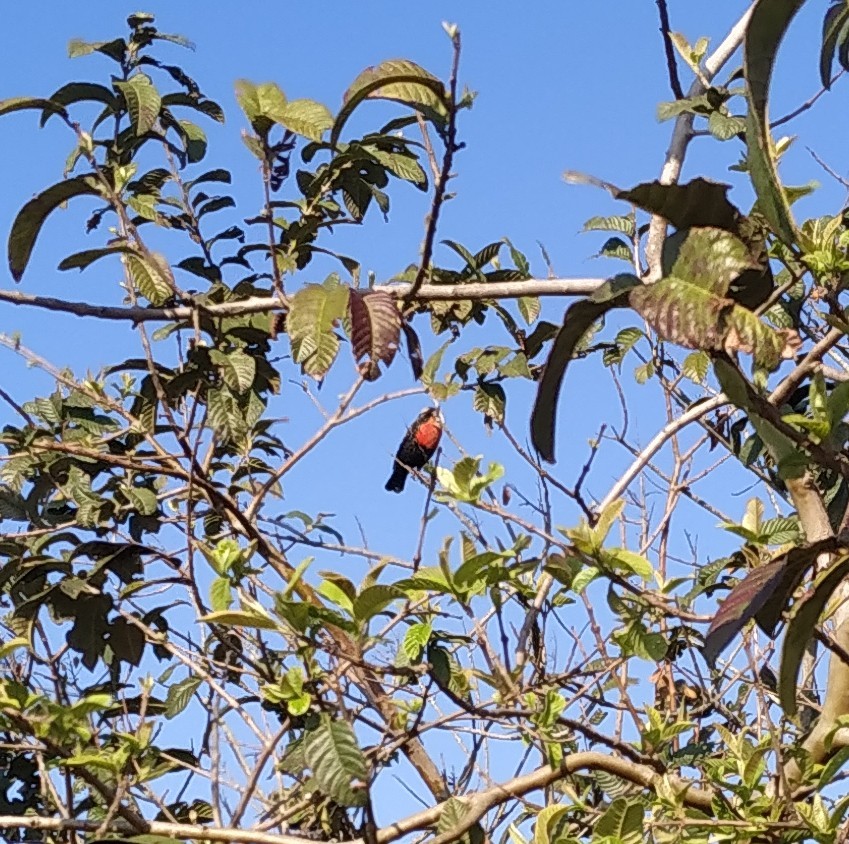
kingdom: Animalia
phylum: Chordata
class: Aves
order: Passeriformes
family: Icteridae
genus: Sturnella
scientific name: Sturnella superciliaris
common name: White-browed blackbird
